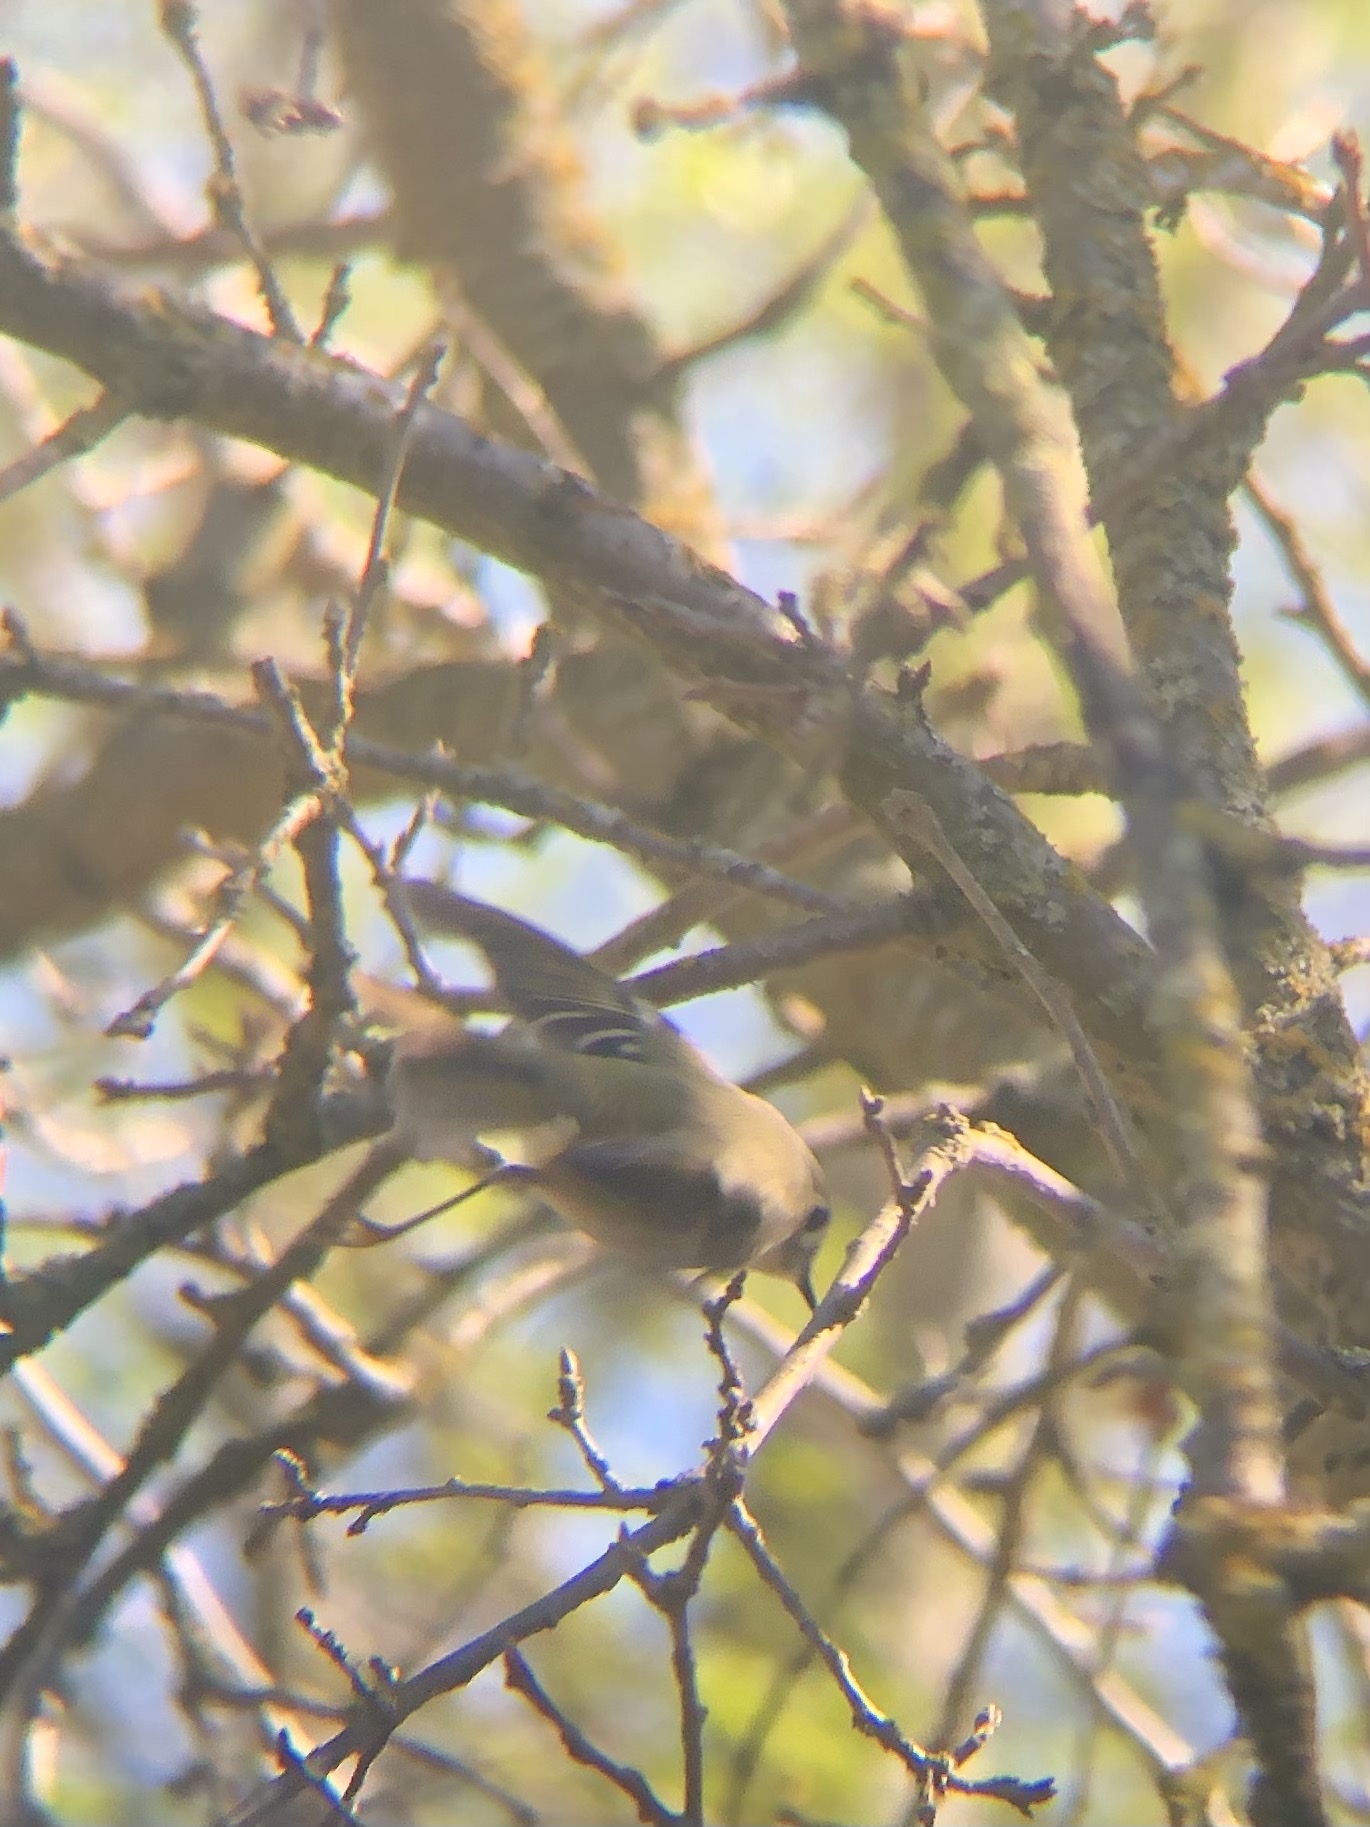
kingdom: Animalia
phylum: Chordata
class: Aves
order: Passeriformes
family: Regulidae
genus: Regulus
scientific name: Regulus calendula
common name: Ruby-crowned kinglet
